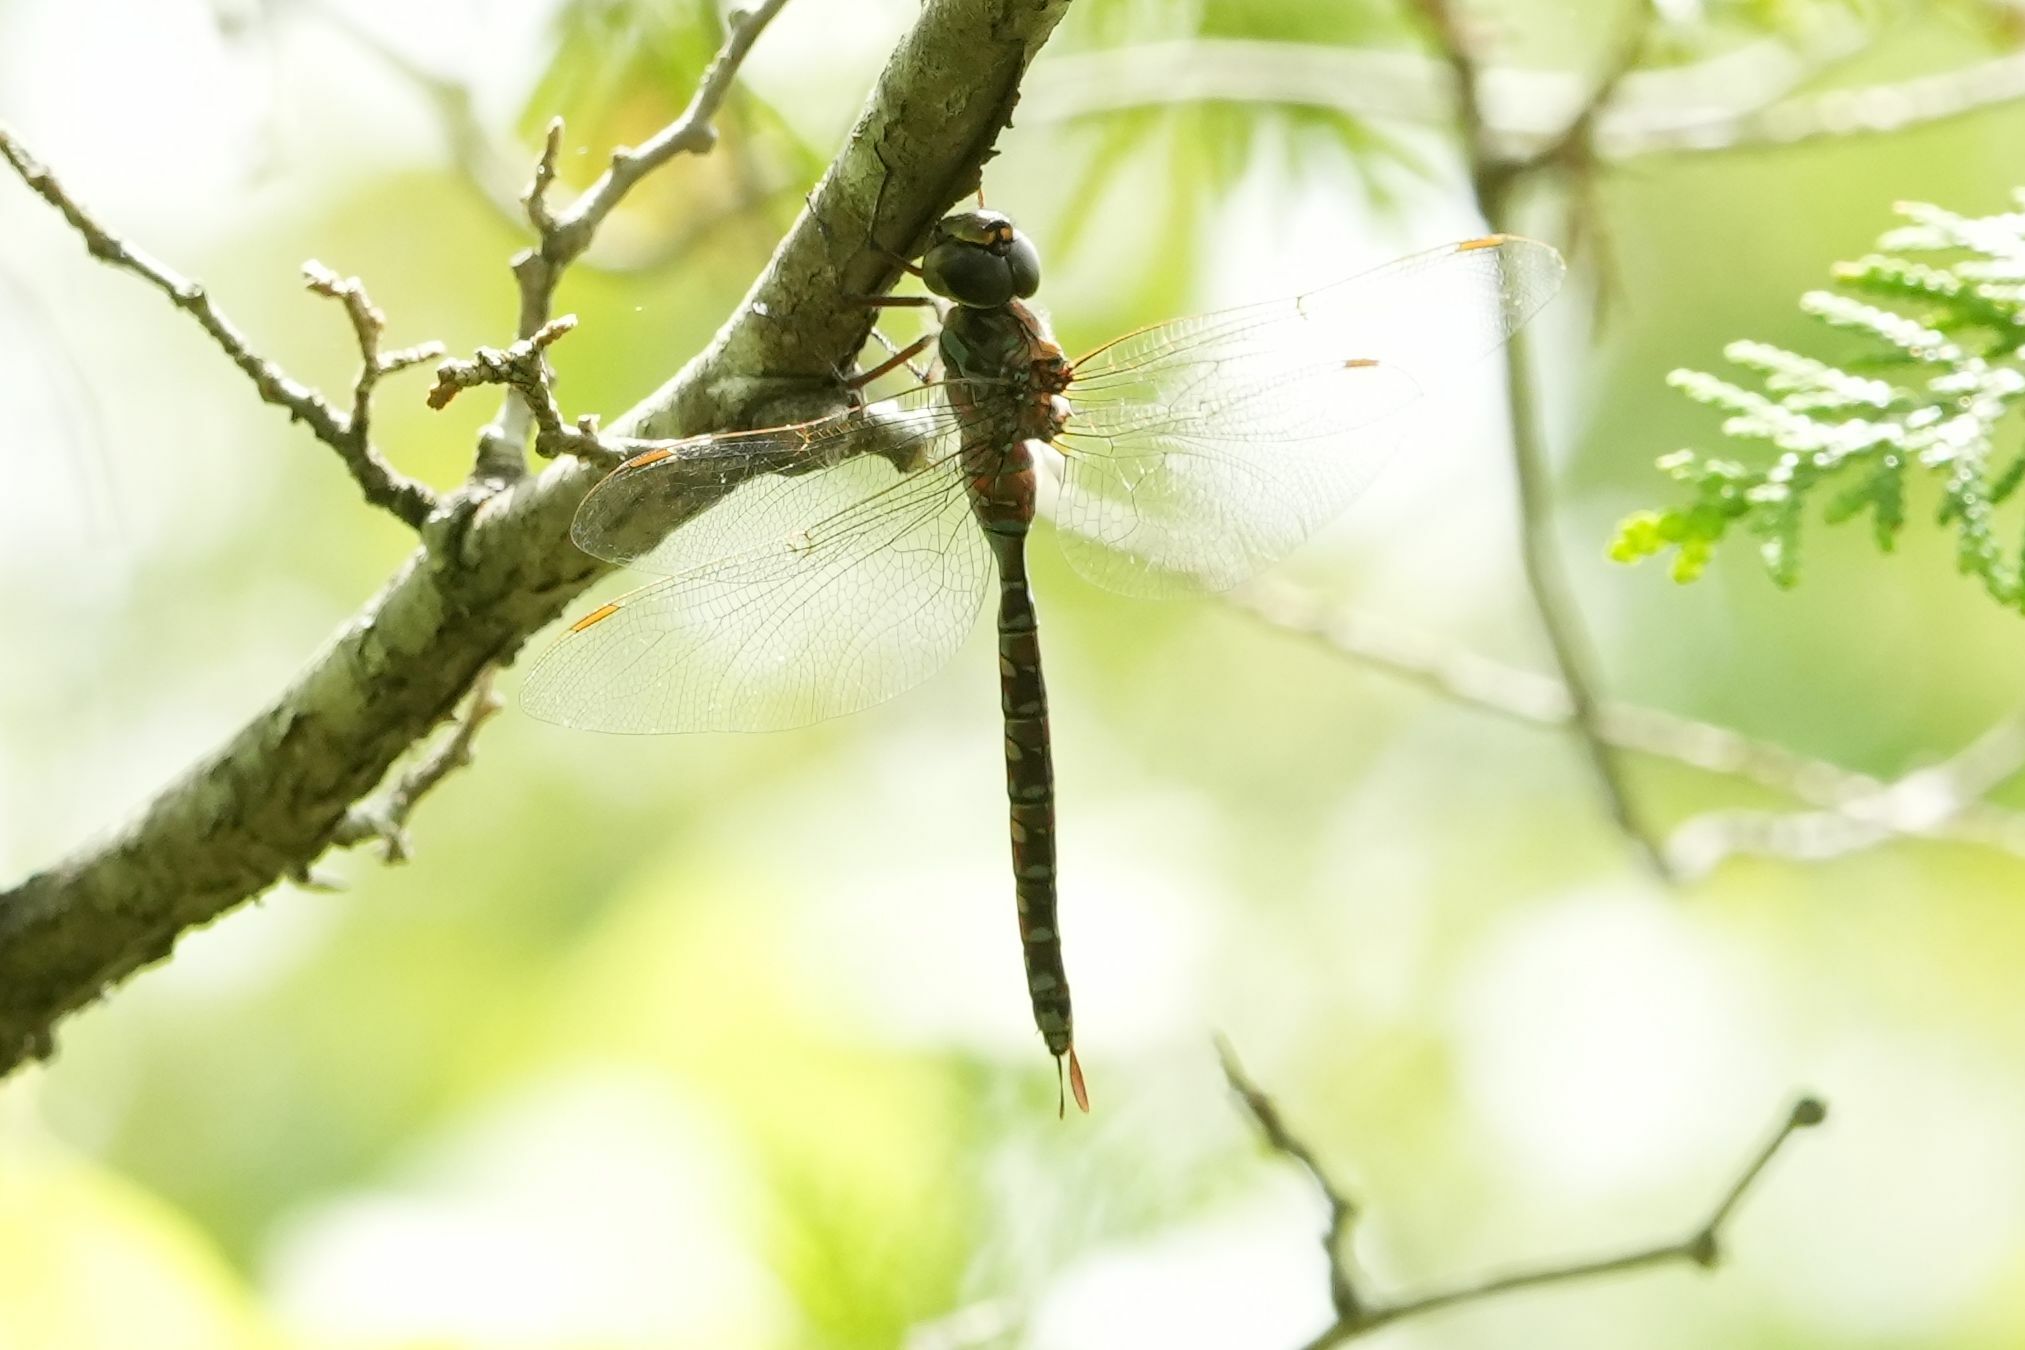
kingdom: Animalia
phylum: Arthropoda
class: Insecta
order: Odonata
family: Aeshnidae
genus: Aeshna
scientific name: Aeshna canadensis
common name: Canada darner
